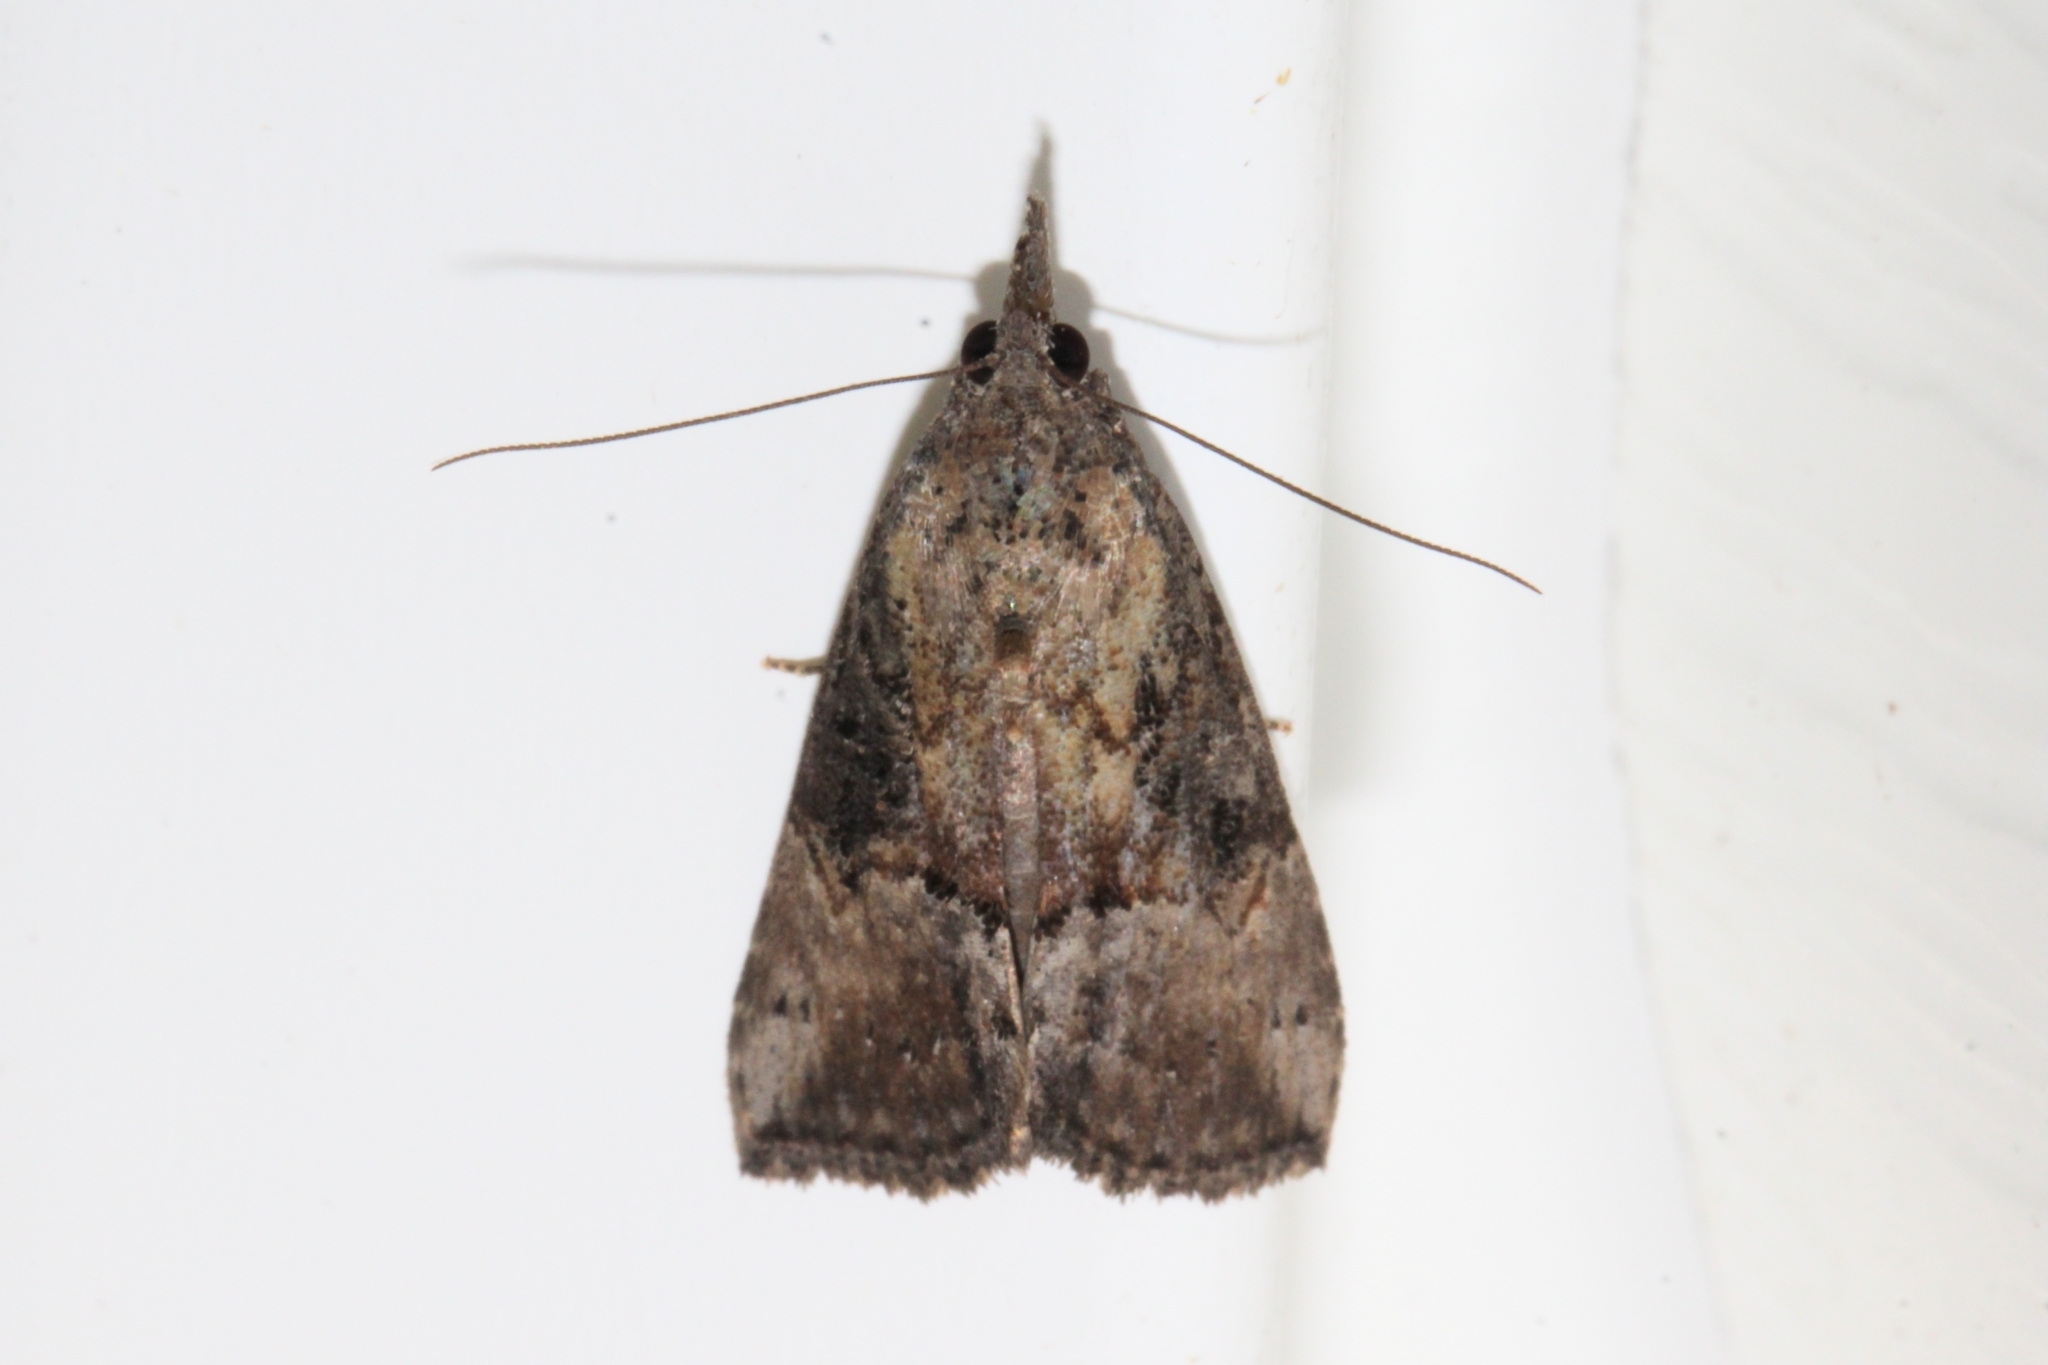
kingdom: Animalia
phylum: Arthropoda
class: Insecta
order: Lepidoptera
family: Erebidae
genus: Hypena
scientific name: Hypena scabra
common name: Green cloverworm
